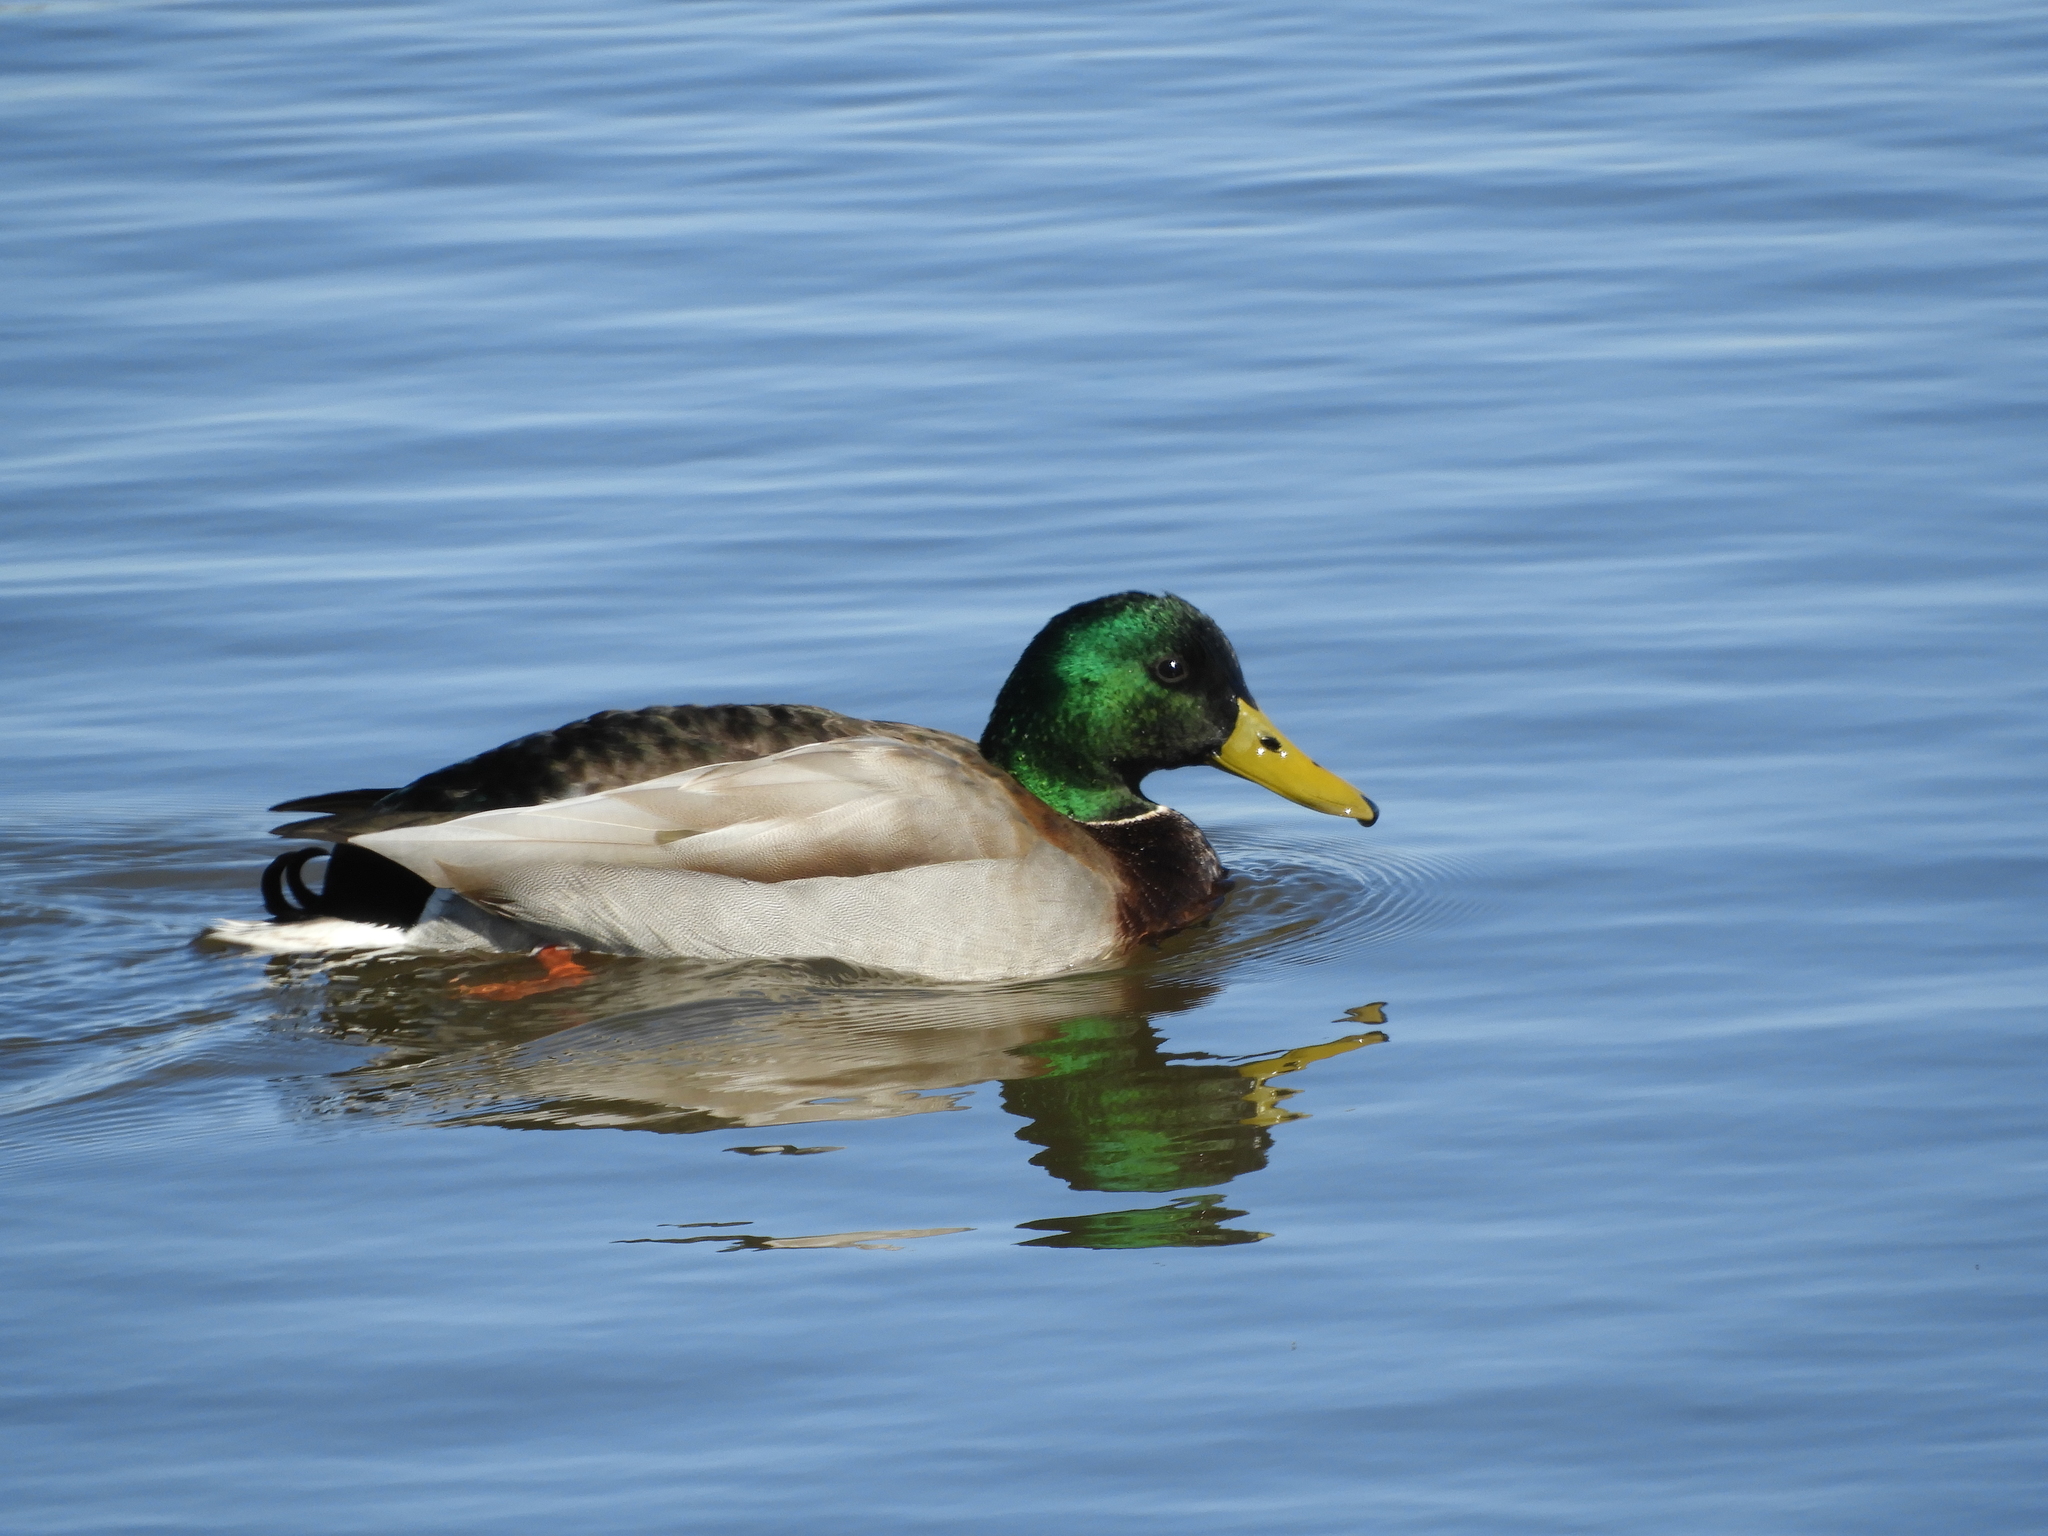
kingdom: Animalia
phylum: Chordata
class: Aves
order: Anseriformes
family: Anatidae
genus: Anas
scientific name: Anas platyrhynchos
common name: Mallard
